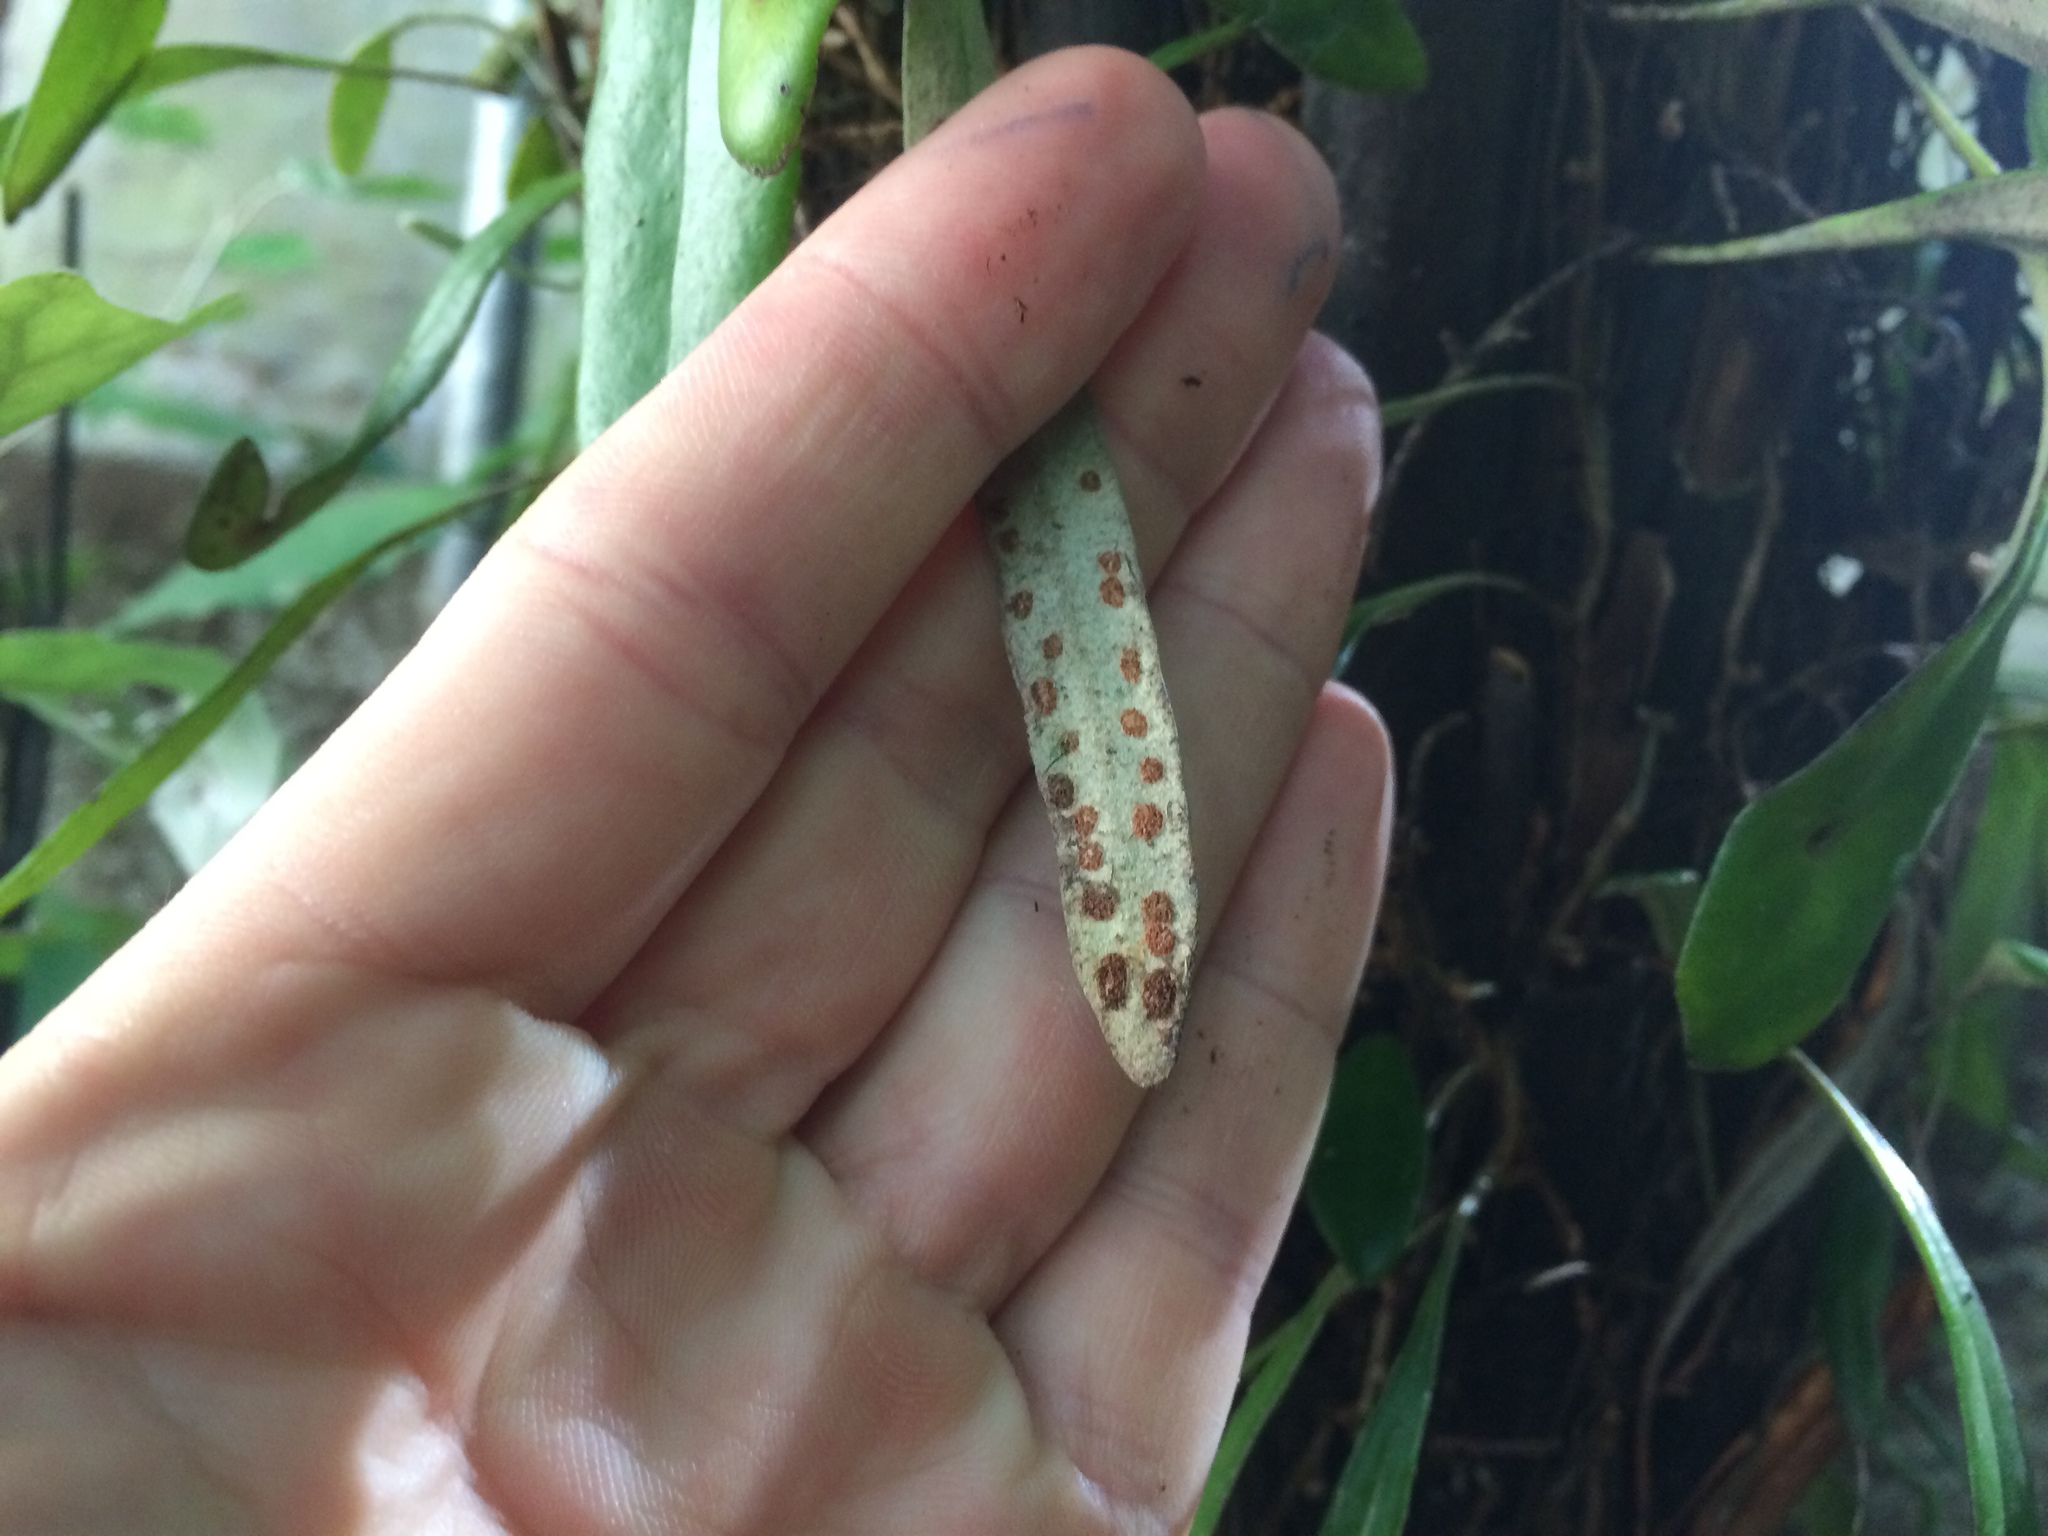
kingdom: Plantae
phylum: Tracheophyta
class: Polypodiopsida
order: Polypodiales
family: Polypodiaceae
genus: Pyrrosia
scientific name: Pyrrosia eleagnifolia
